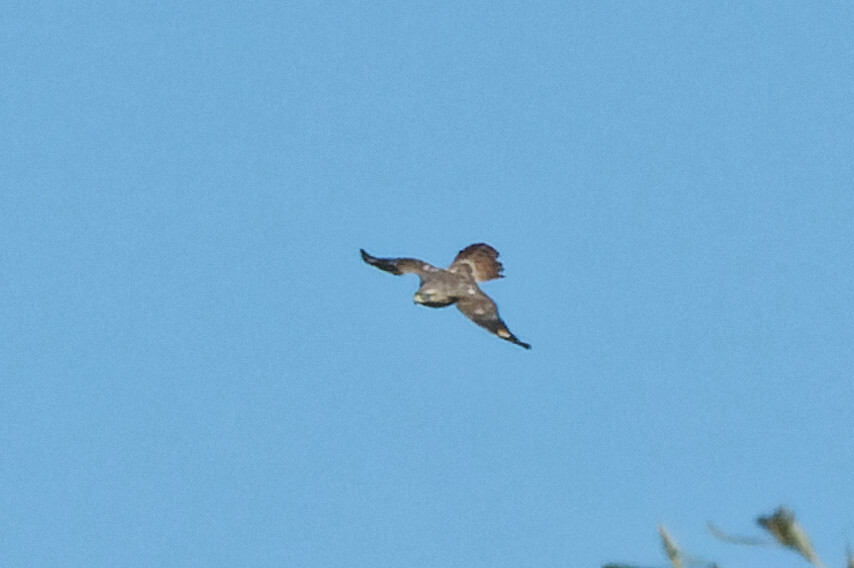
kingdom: Animalia
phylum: Chordata
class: Aves
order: Accipitriformes
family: Accipitridae
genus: Buteo
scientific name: Buteo lineatus
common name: Red-shouldered hawk
